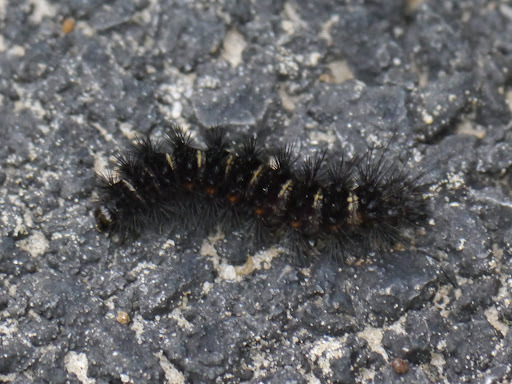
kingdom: Animalia
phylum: Arthropoda
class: Insecta
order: Lepidoptera
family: Erebidae
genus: Spilosoma
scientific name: Spilosoma congrua
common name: Agreeable tiger moth
